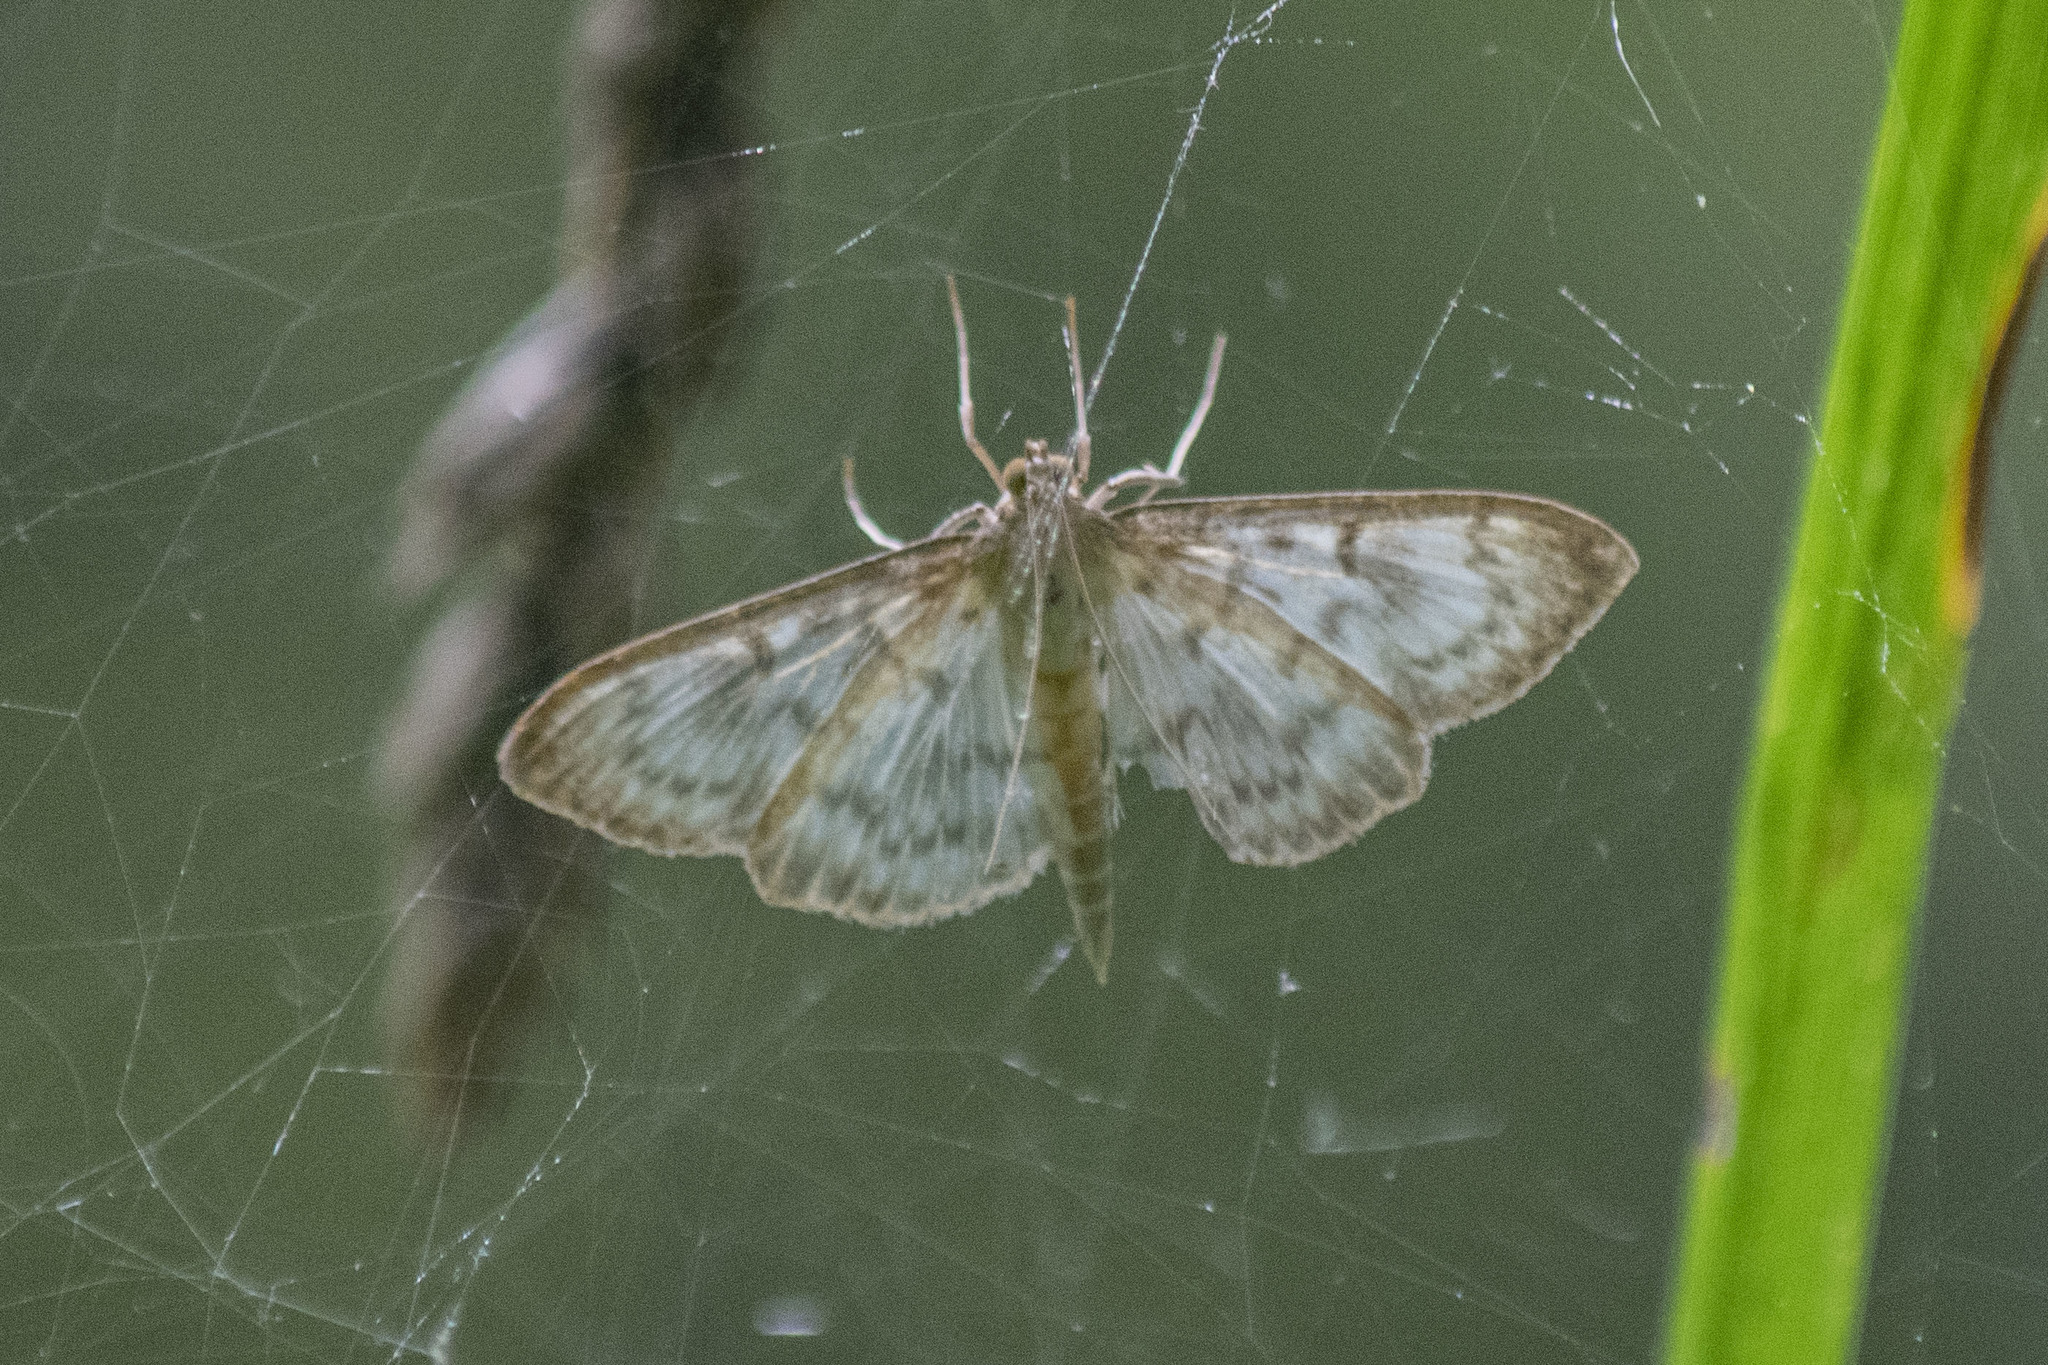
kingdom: Animalia
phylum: Arthropoda
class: Insecta
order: Lepidoptera
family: Crambidae
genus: Patania
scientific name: Patania ruralis
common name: Mother of pearl
